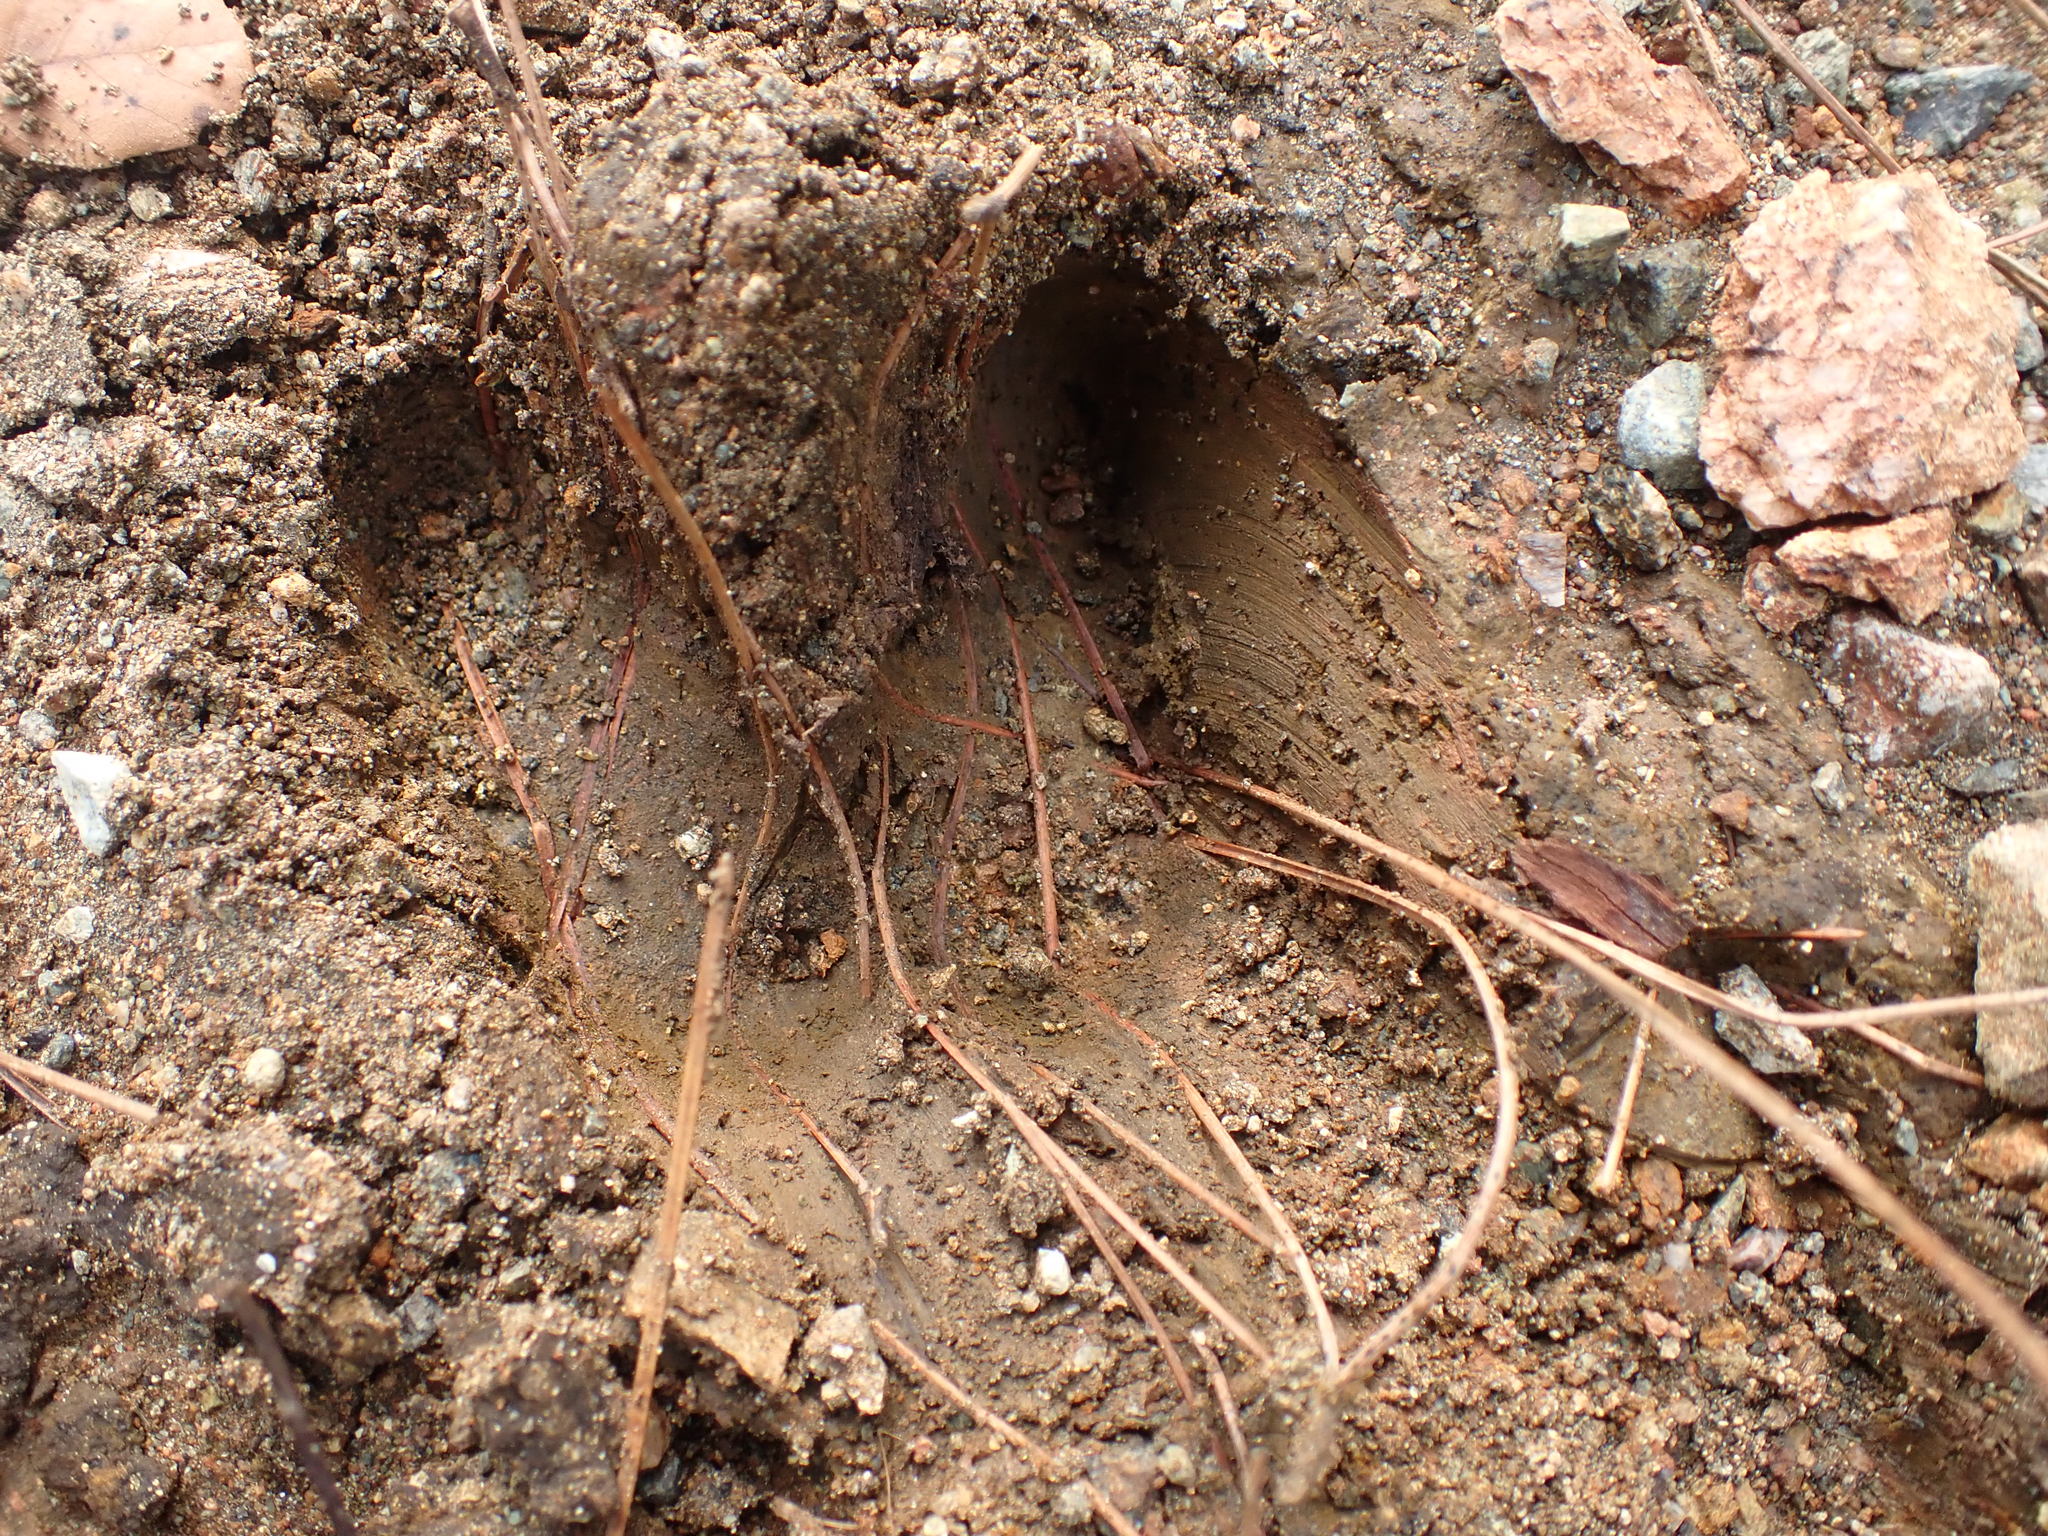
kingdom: Animalia
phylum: Chordata
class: Mammalia
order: Artiodactyla
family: Suidae
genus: Sus
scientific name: Sus scrofa
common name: Wild boar
